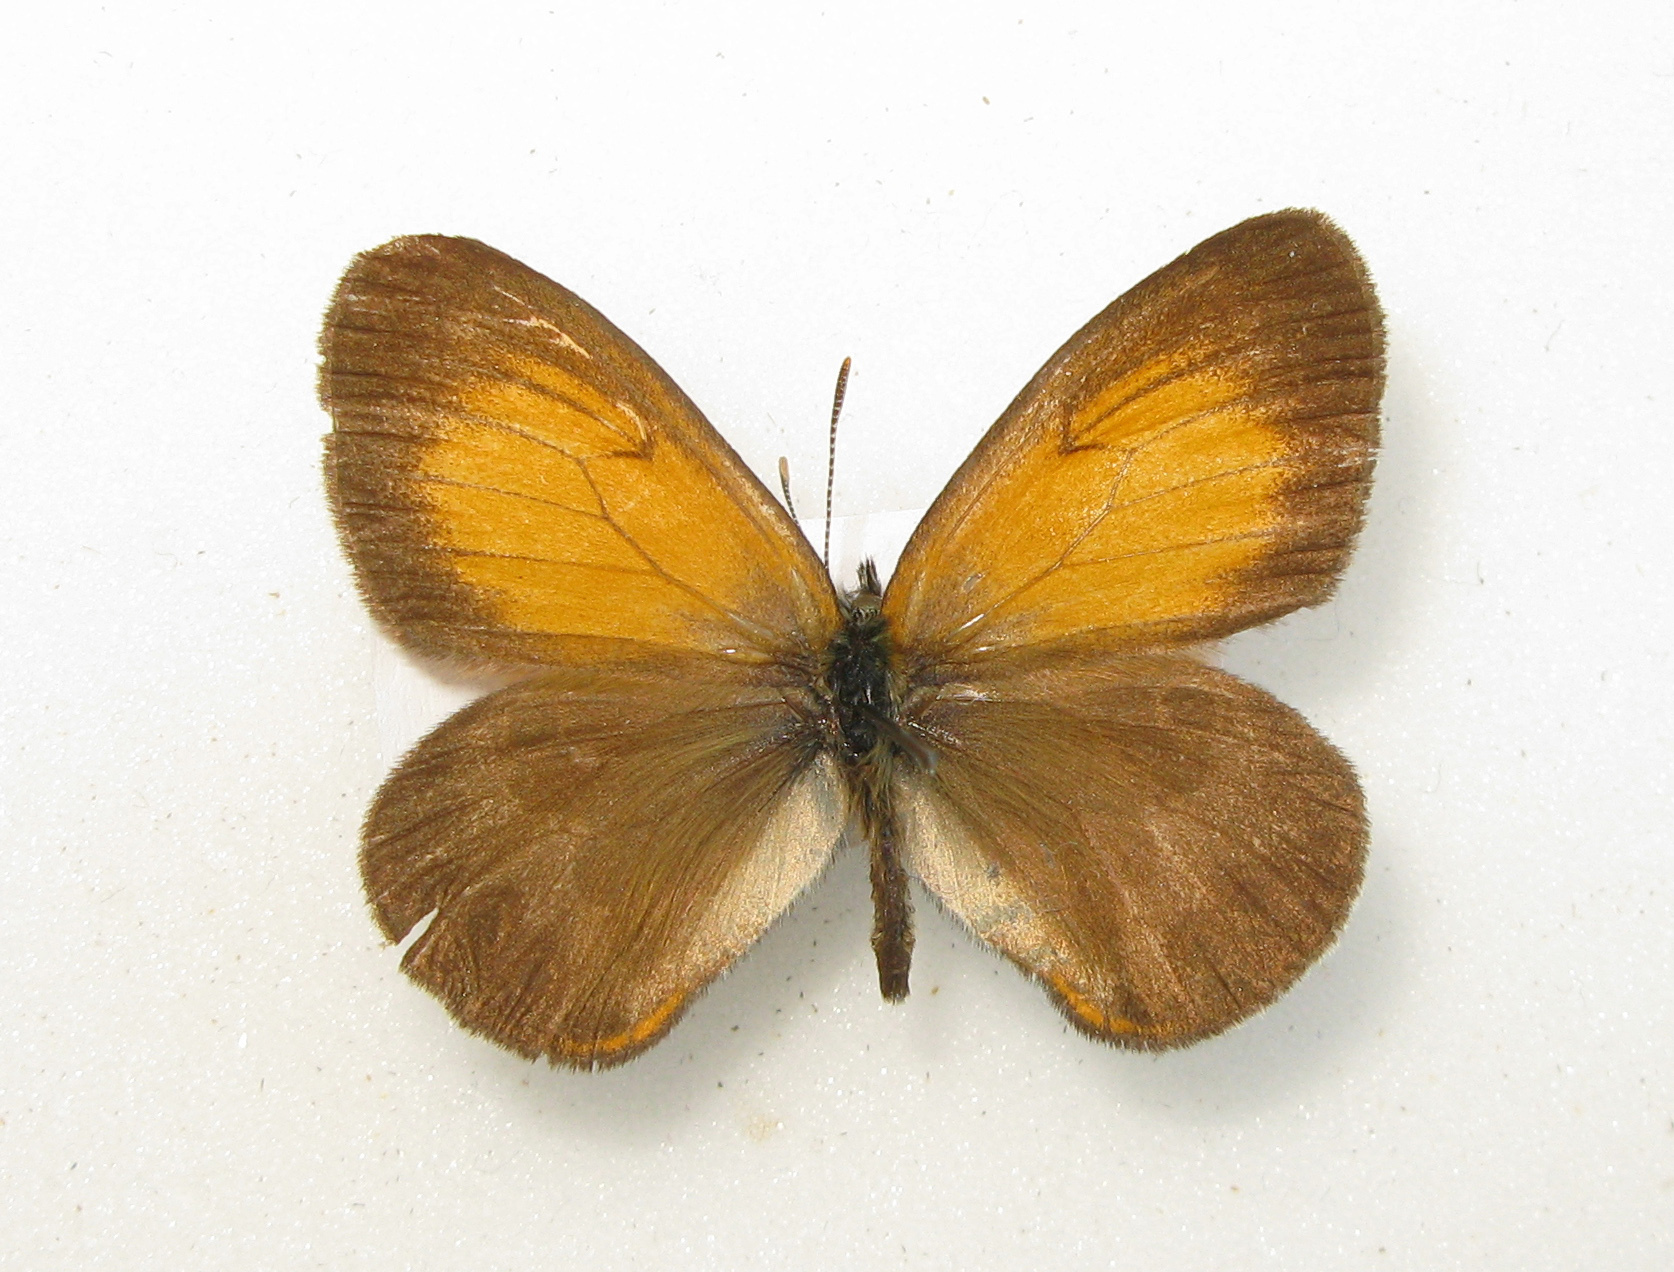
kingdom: Animalia
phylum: Arthropoda
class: Insecta
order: Lepidoptera
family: Nymphalidae
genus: Coenonympha
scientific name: Coenonympha arcania
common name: Pearly heath
